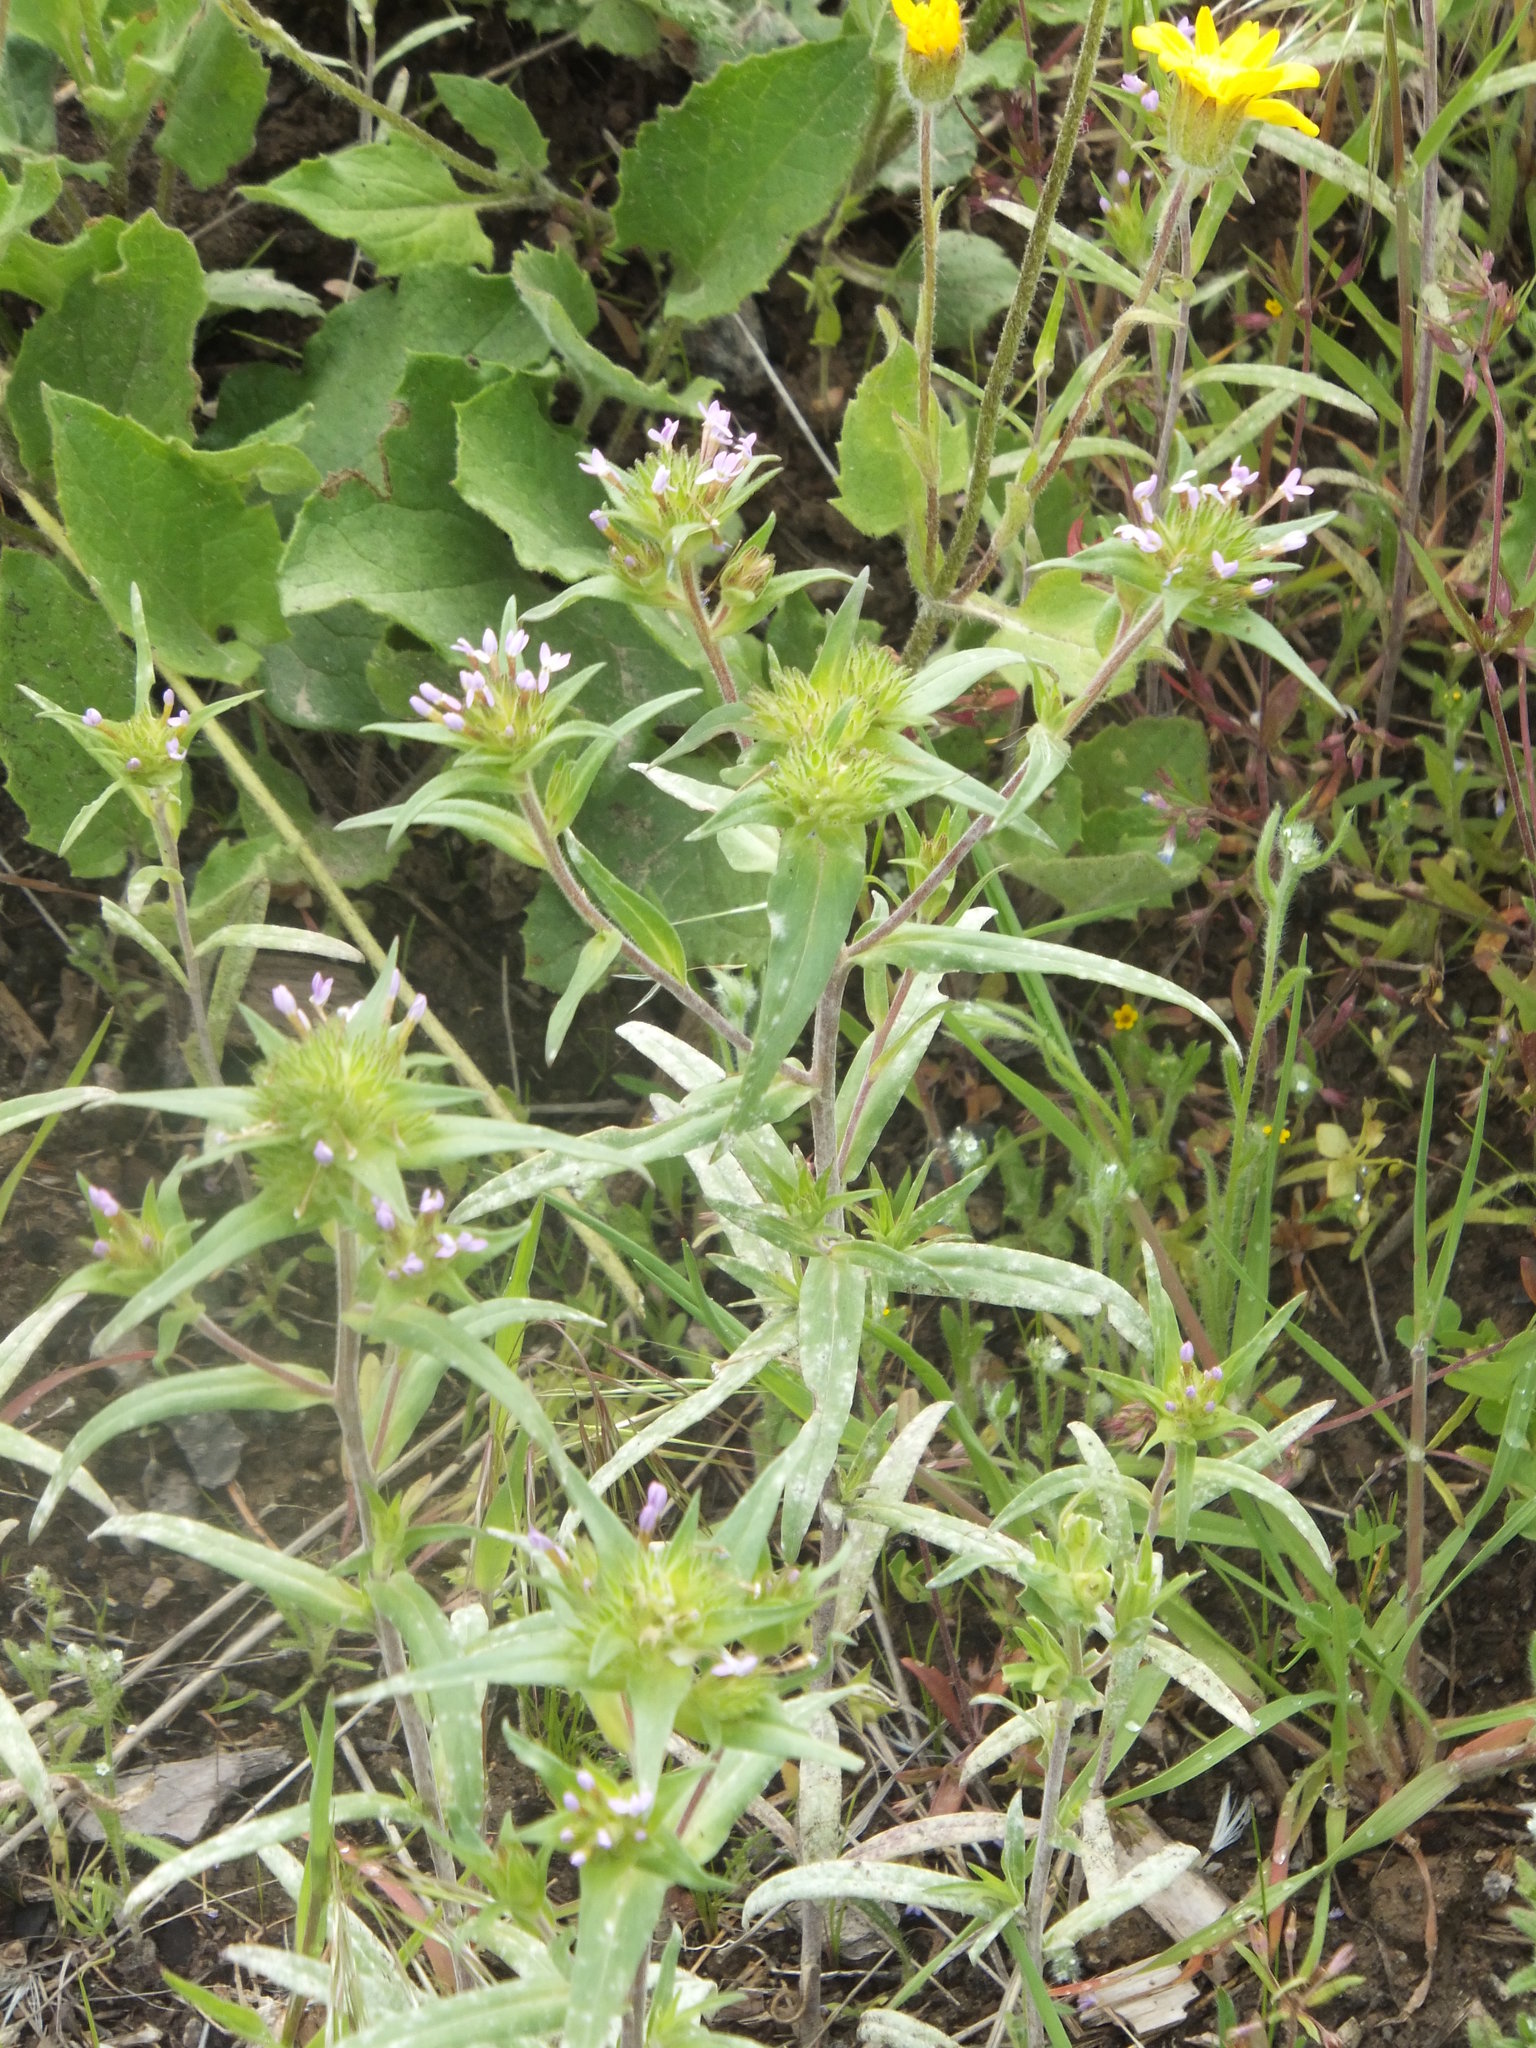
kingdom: Plantae
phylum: Tracheophyta
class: Magnoliopsida
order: Ericales
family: Polemoniaceae
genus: Collomia
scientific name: Collomia linearis
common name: Tiny trumpet
